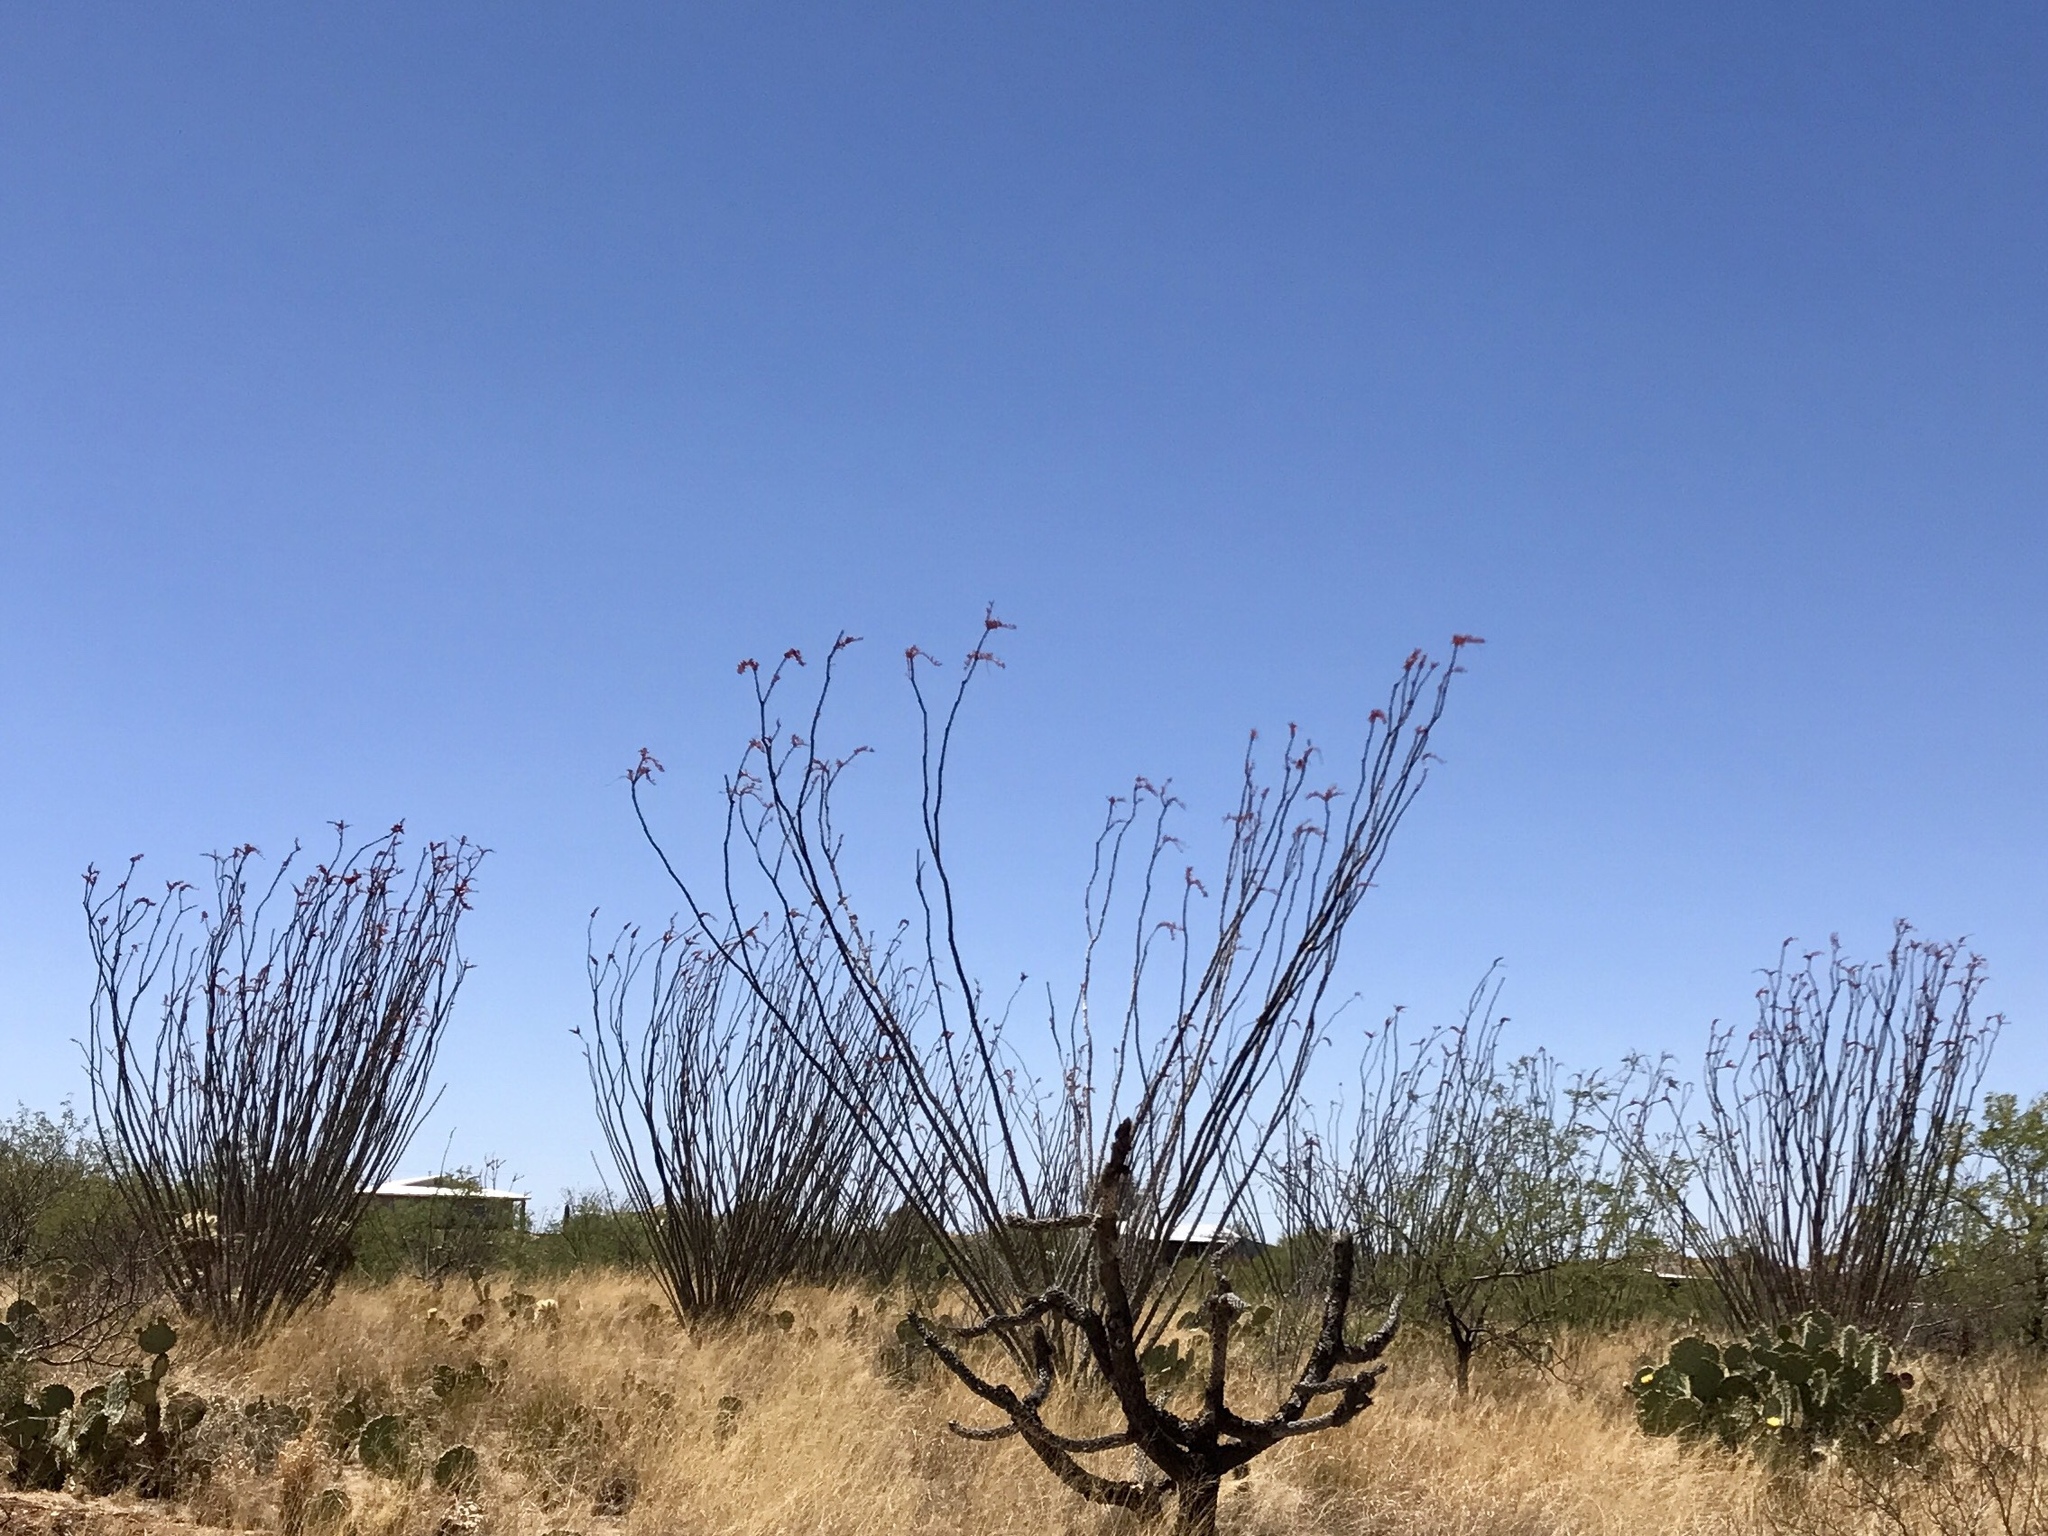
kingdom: Plantae
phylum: Tracheophyta
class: Magnoliopsida
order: Ericales
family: Fouquieriaceae
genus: Fouquieria
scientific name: Fouquieria splendens
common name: Vine-cactus
